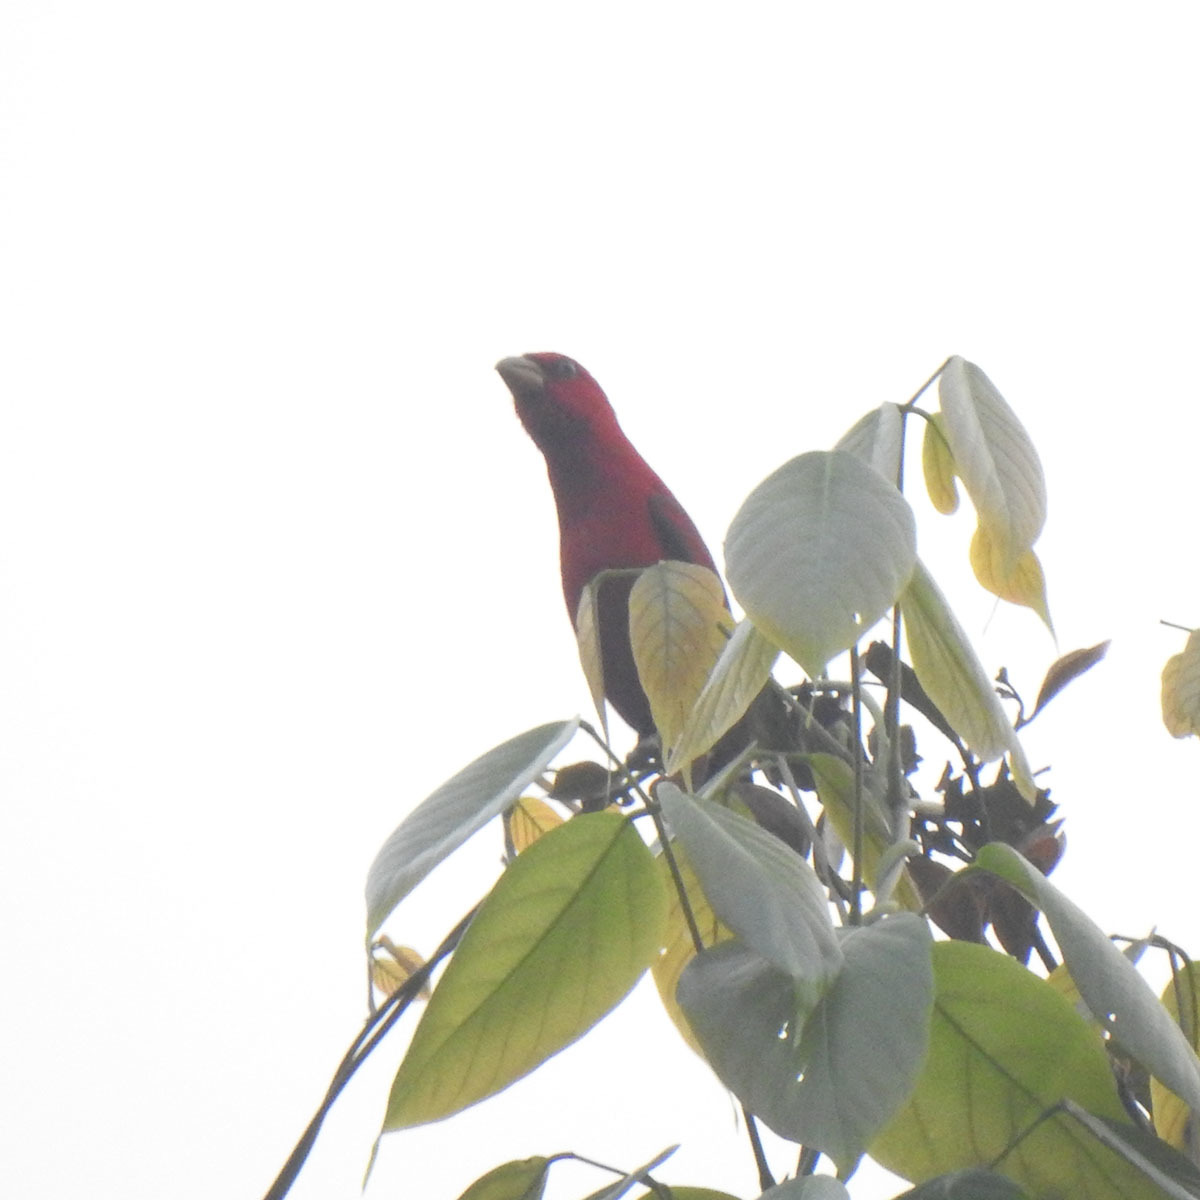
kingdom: Animalia
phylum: Chordata
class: Aves
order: Passeriformes
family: Fringillidae
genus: Carpodacus
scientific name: Carpodacus sipahi
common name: Scarlet finch
